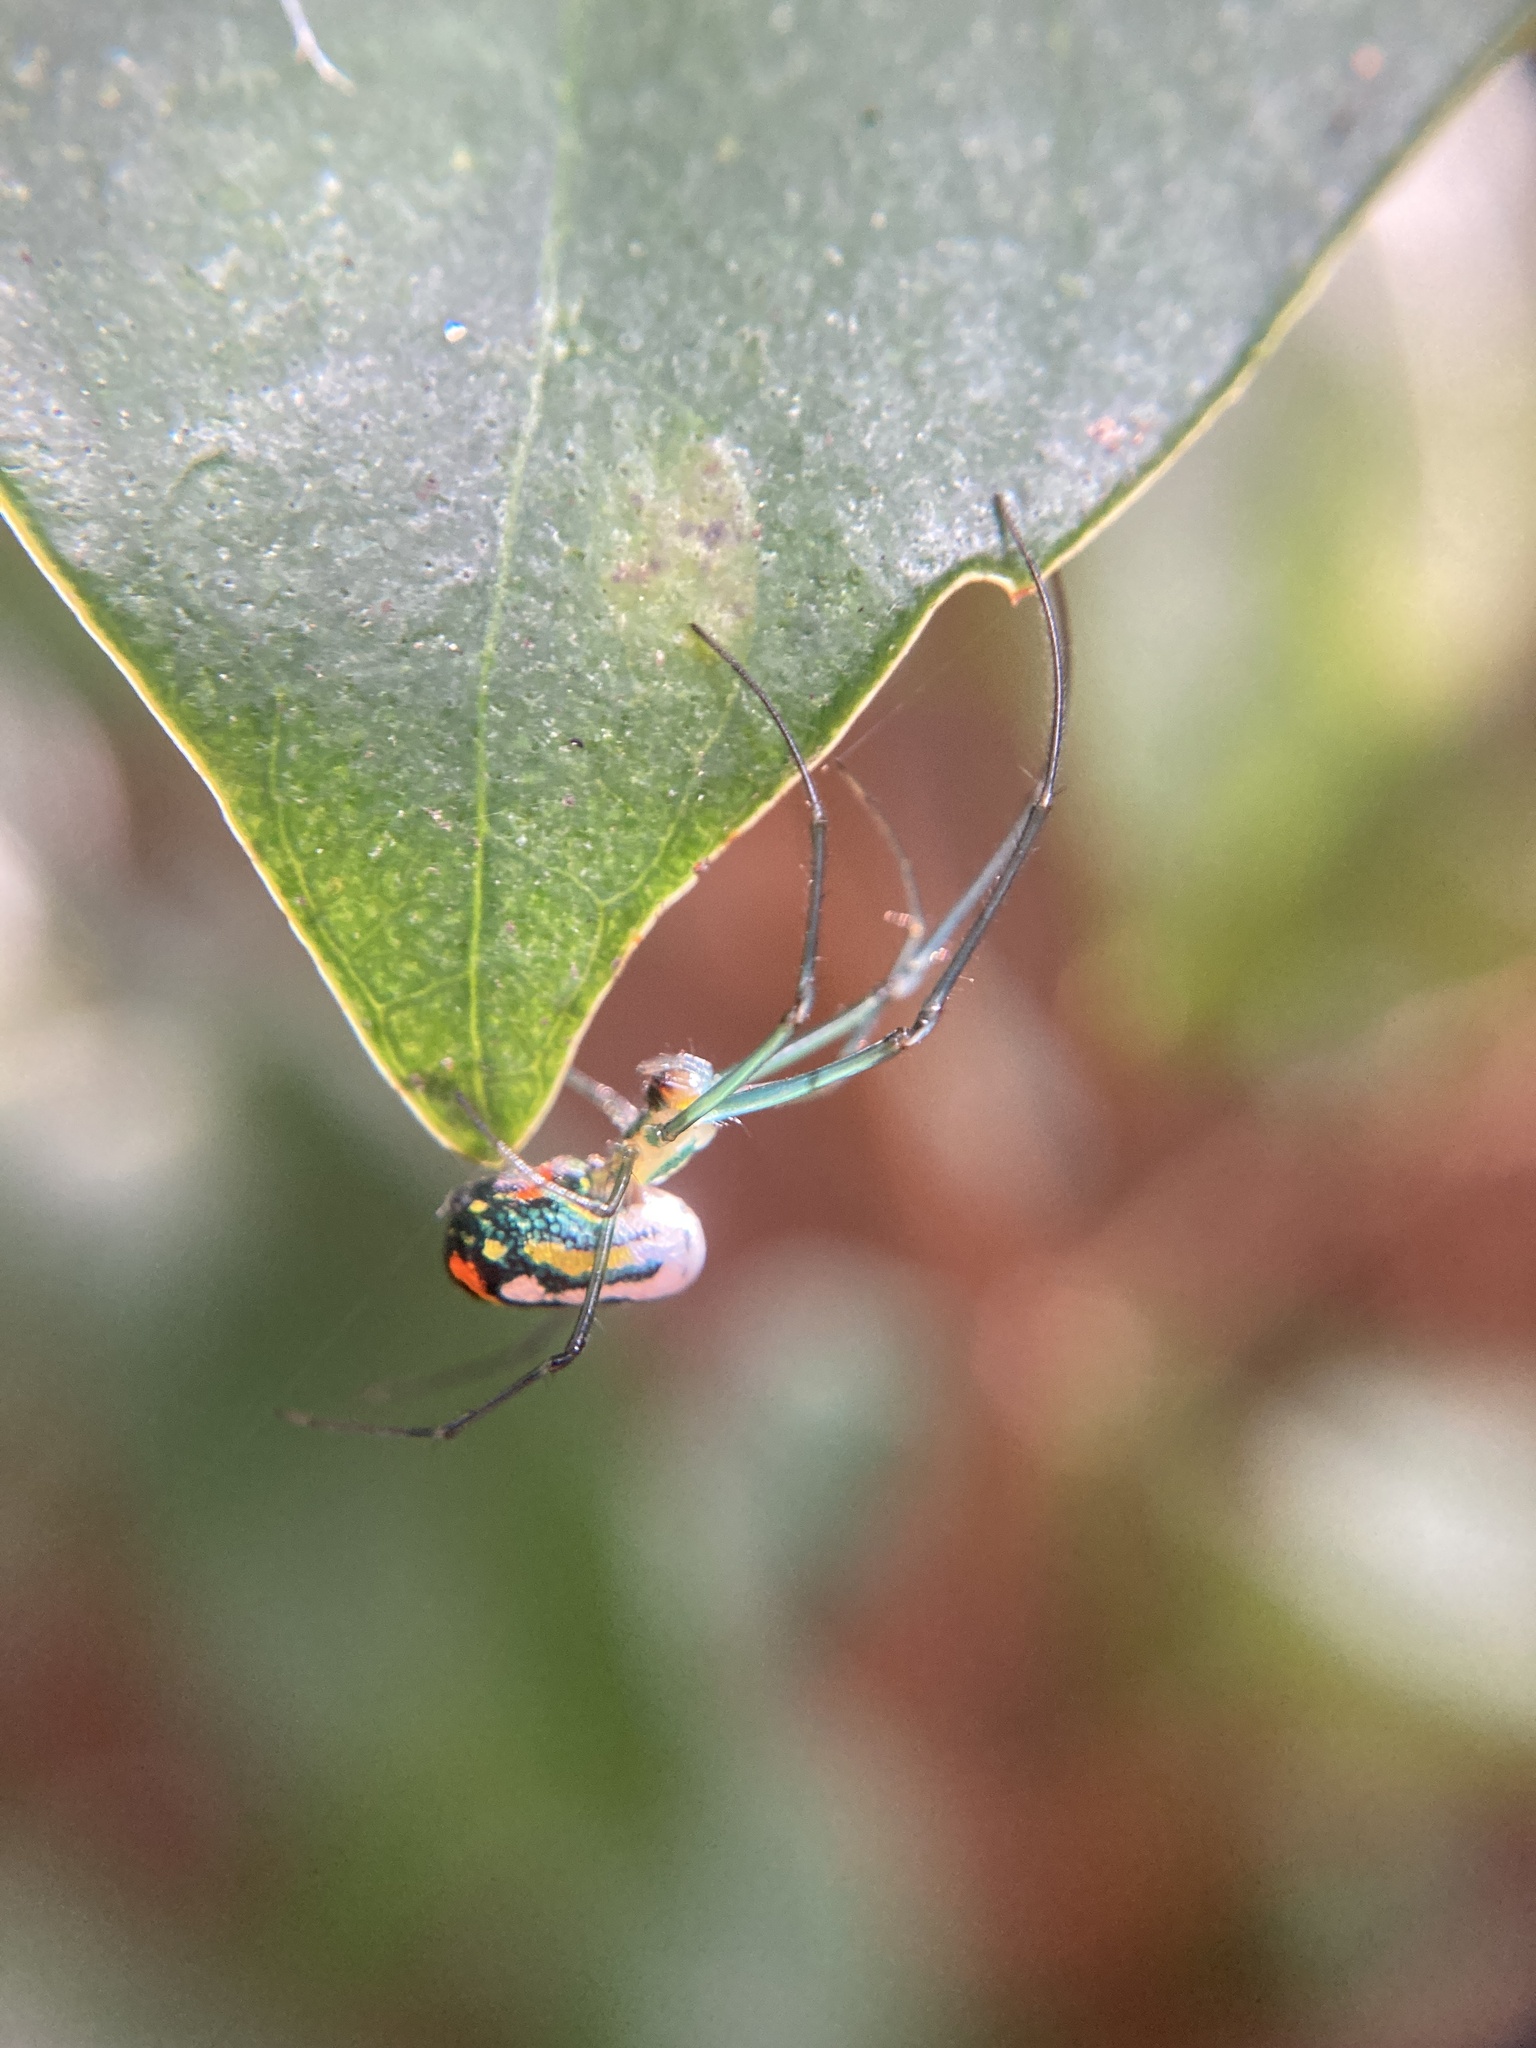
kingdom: Animalia
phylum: Arthropoda
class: Arachnida
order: Araneae
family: Tetragnathidae
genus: Leucauge
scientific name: Leucauge argyrobapta
